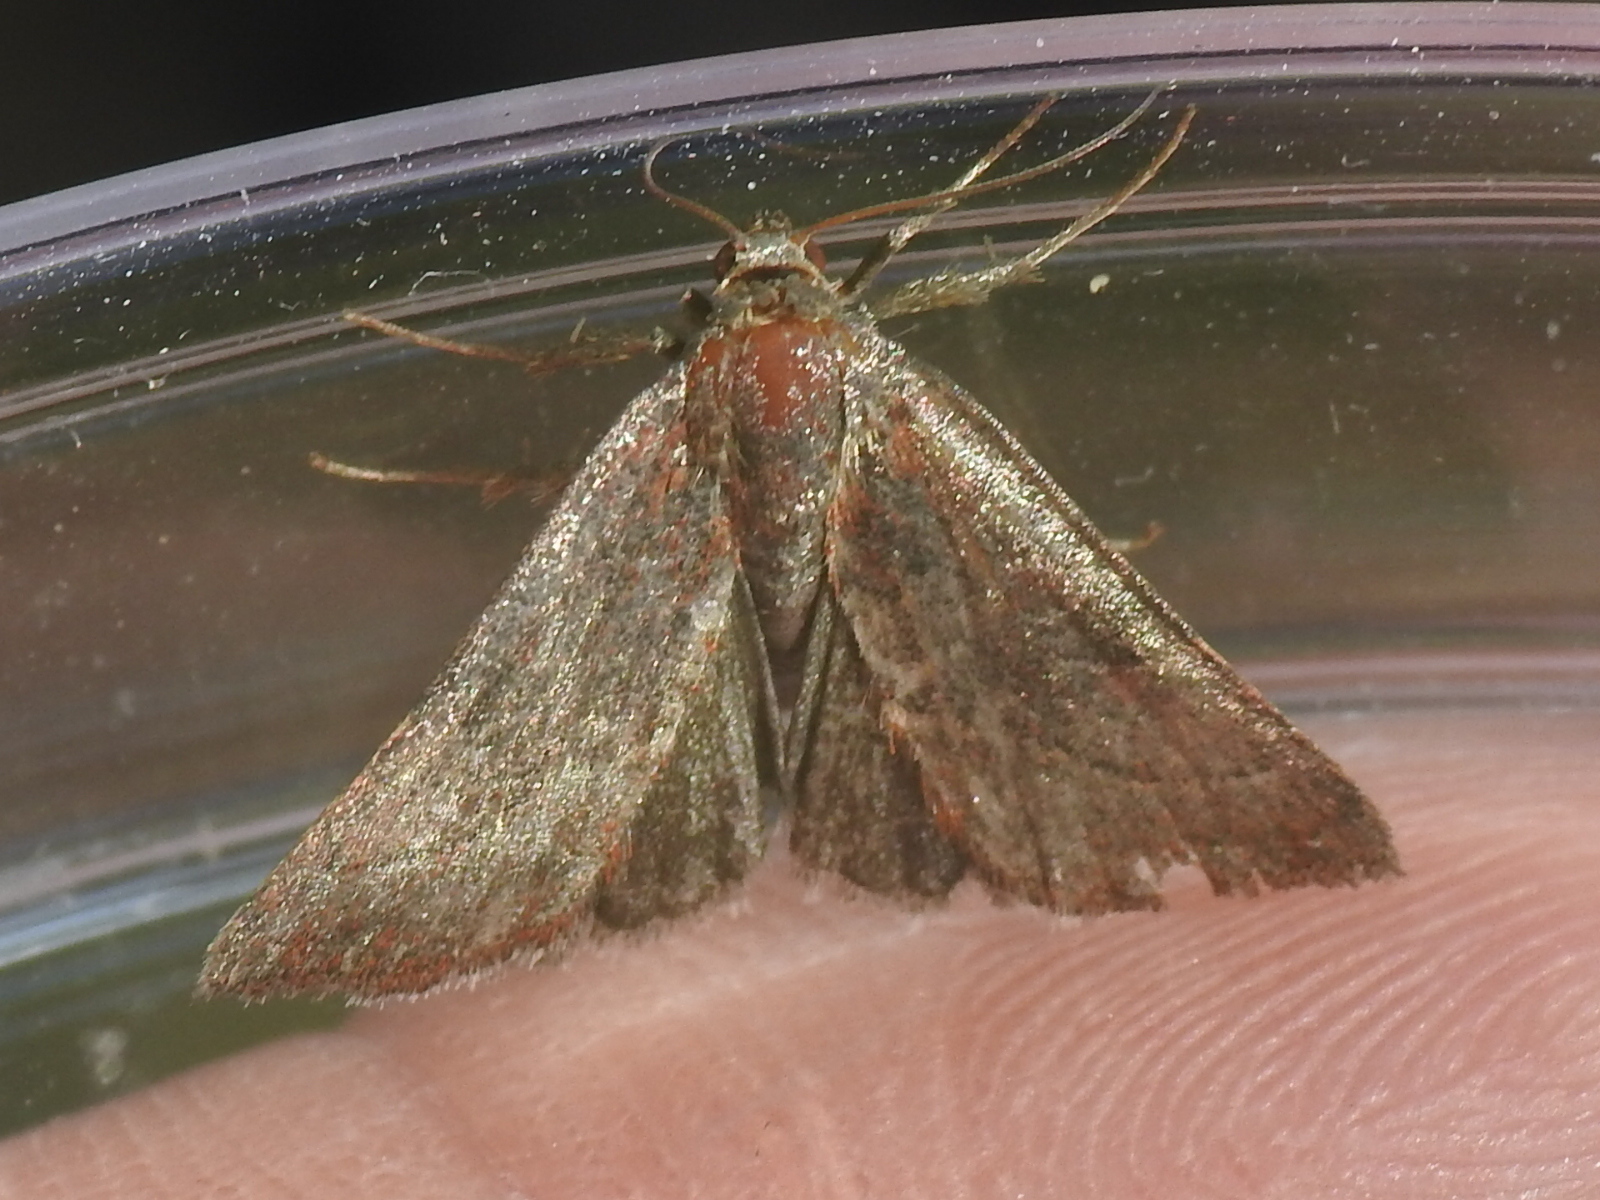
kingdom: Animalia
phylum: Arthropoda
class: Insecta
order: Lepidoptera
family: Noctuidae
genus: Galgula
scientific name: Galgula partita
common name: Wedgeling
